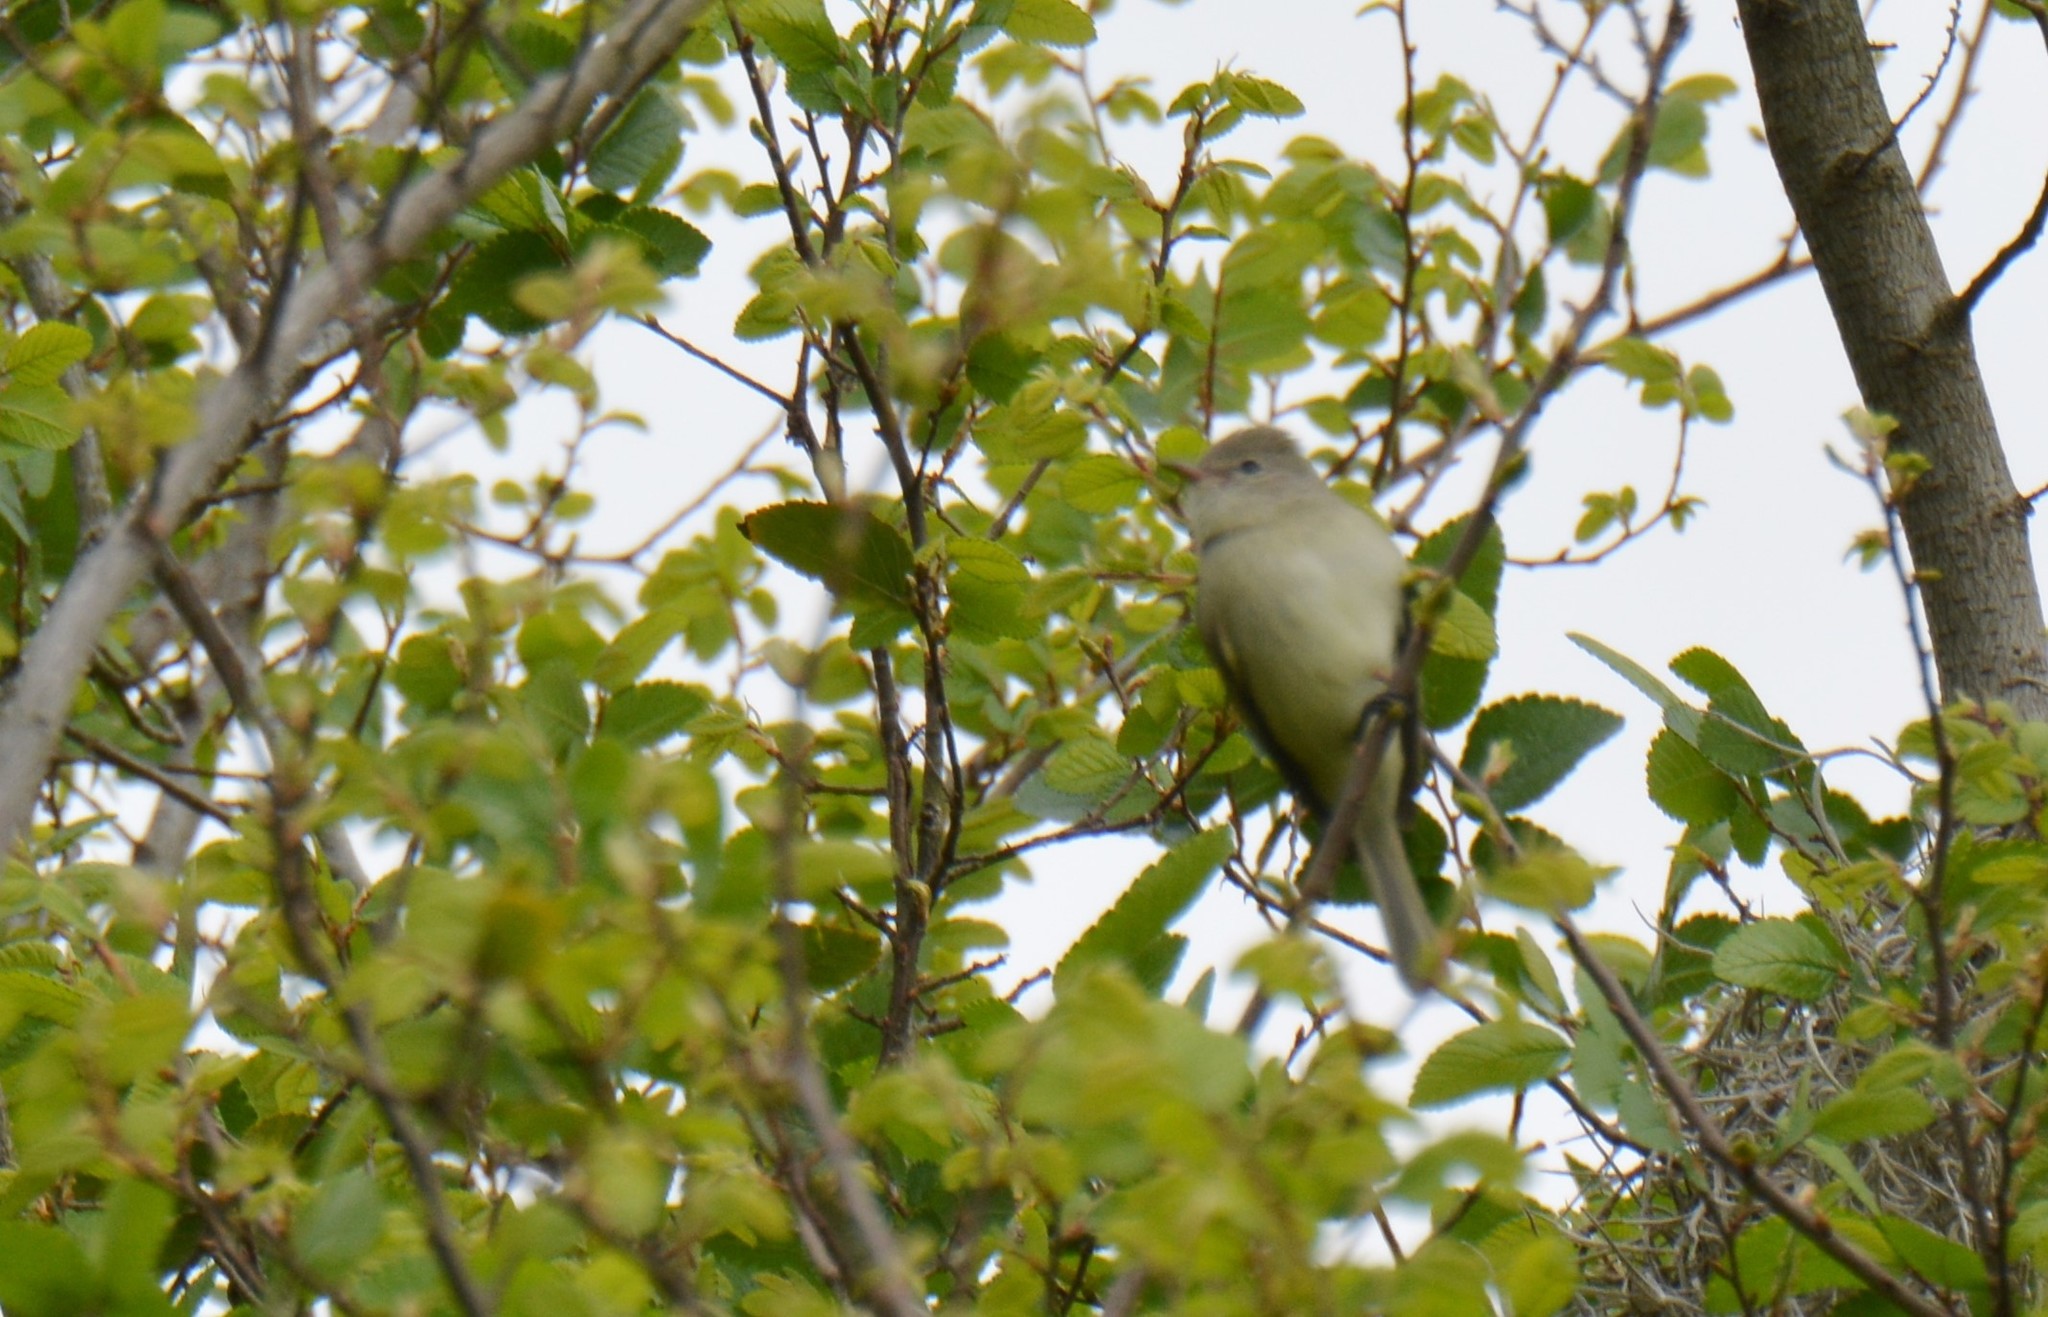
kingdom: Animalia
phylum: Chordata
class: Aves
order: Passeriformes
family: Tyrannidae
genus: Camptostoma
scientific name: Camptostoma imberbe
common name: Northern beardless-tyrannulet
